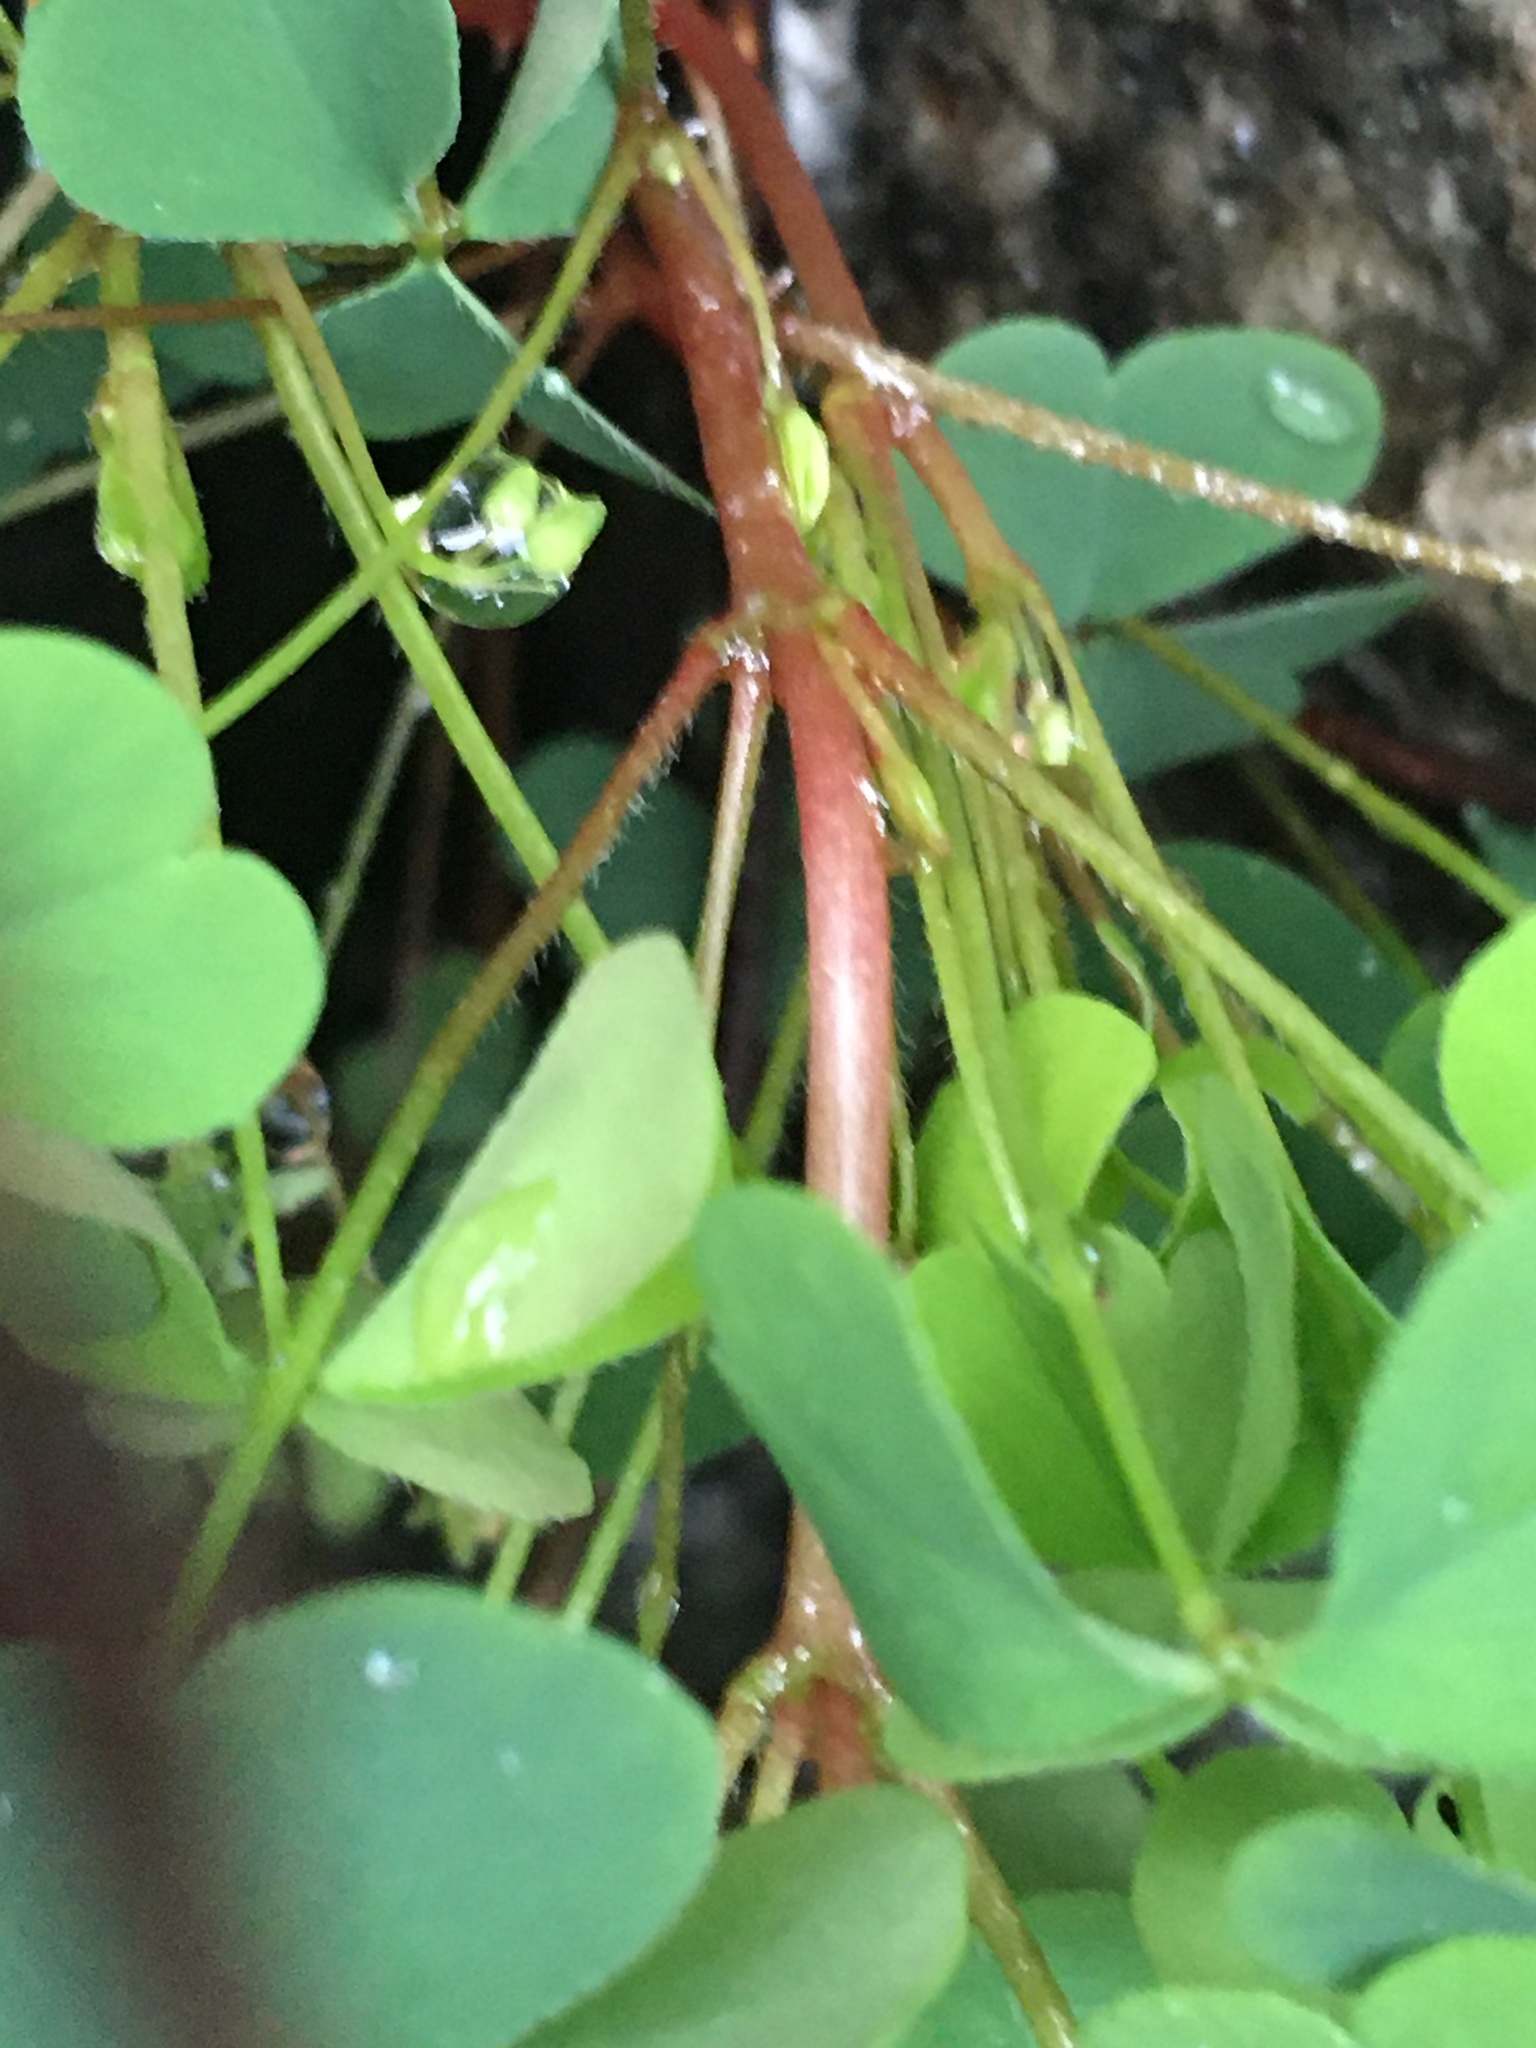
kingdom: Plantae
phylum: Tracheophyta
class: Magnoliopsida
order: Oxalidales
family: Oxalidaceae
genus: Oxalis
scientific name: Oxalis corniculata
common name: Procumbent yellow-sorrel
